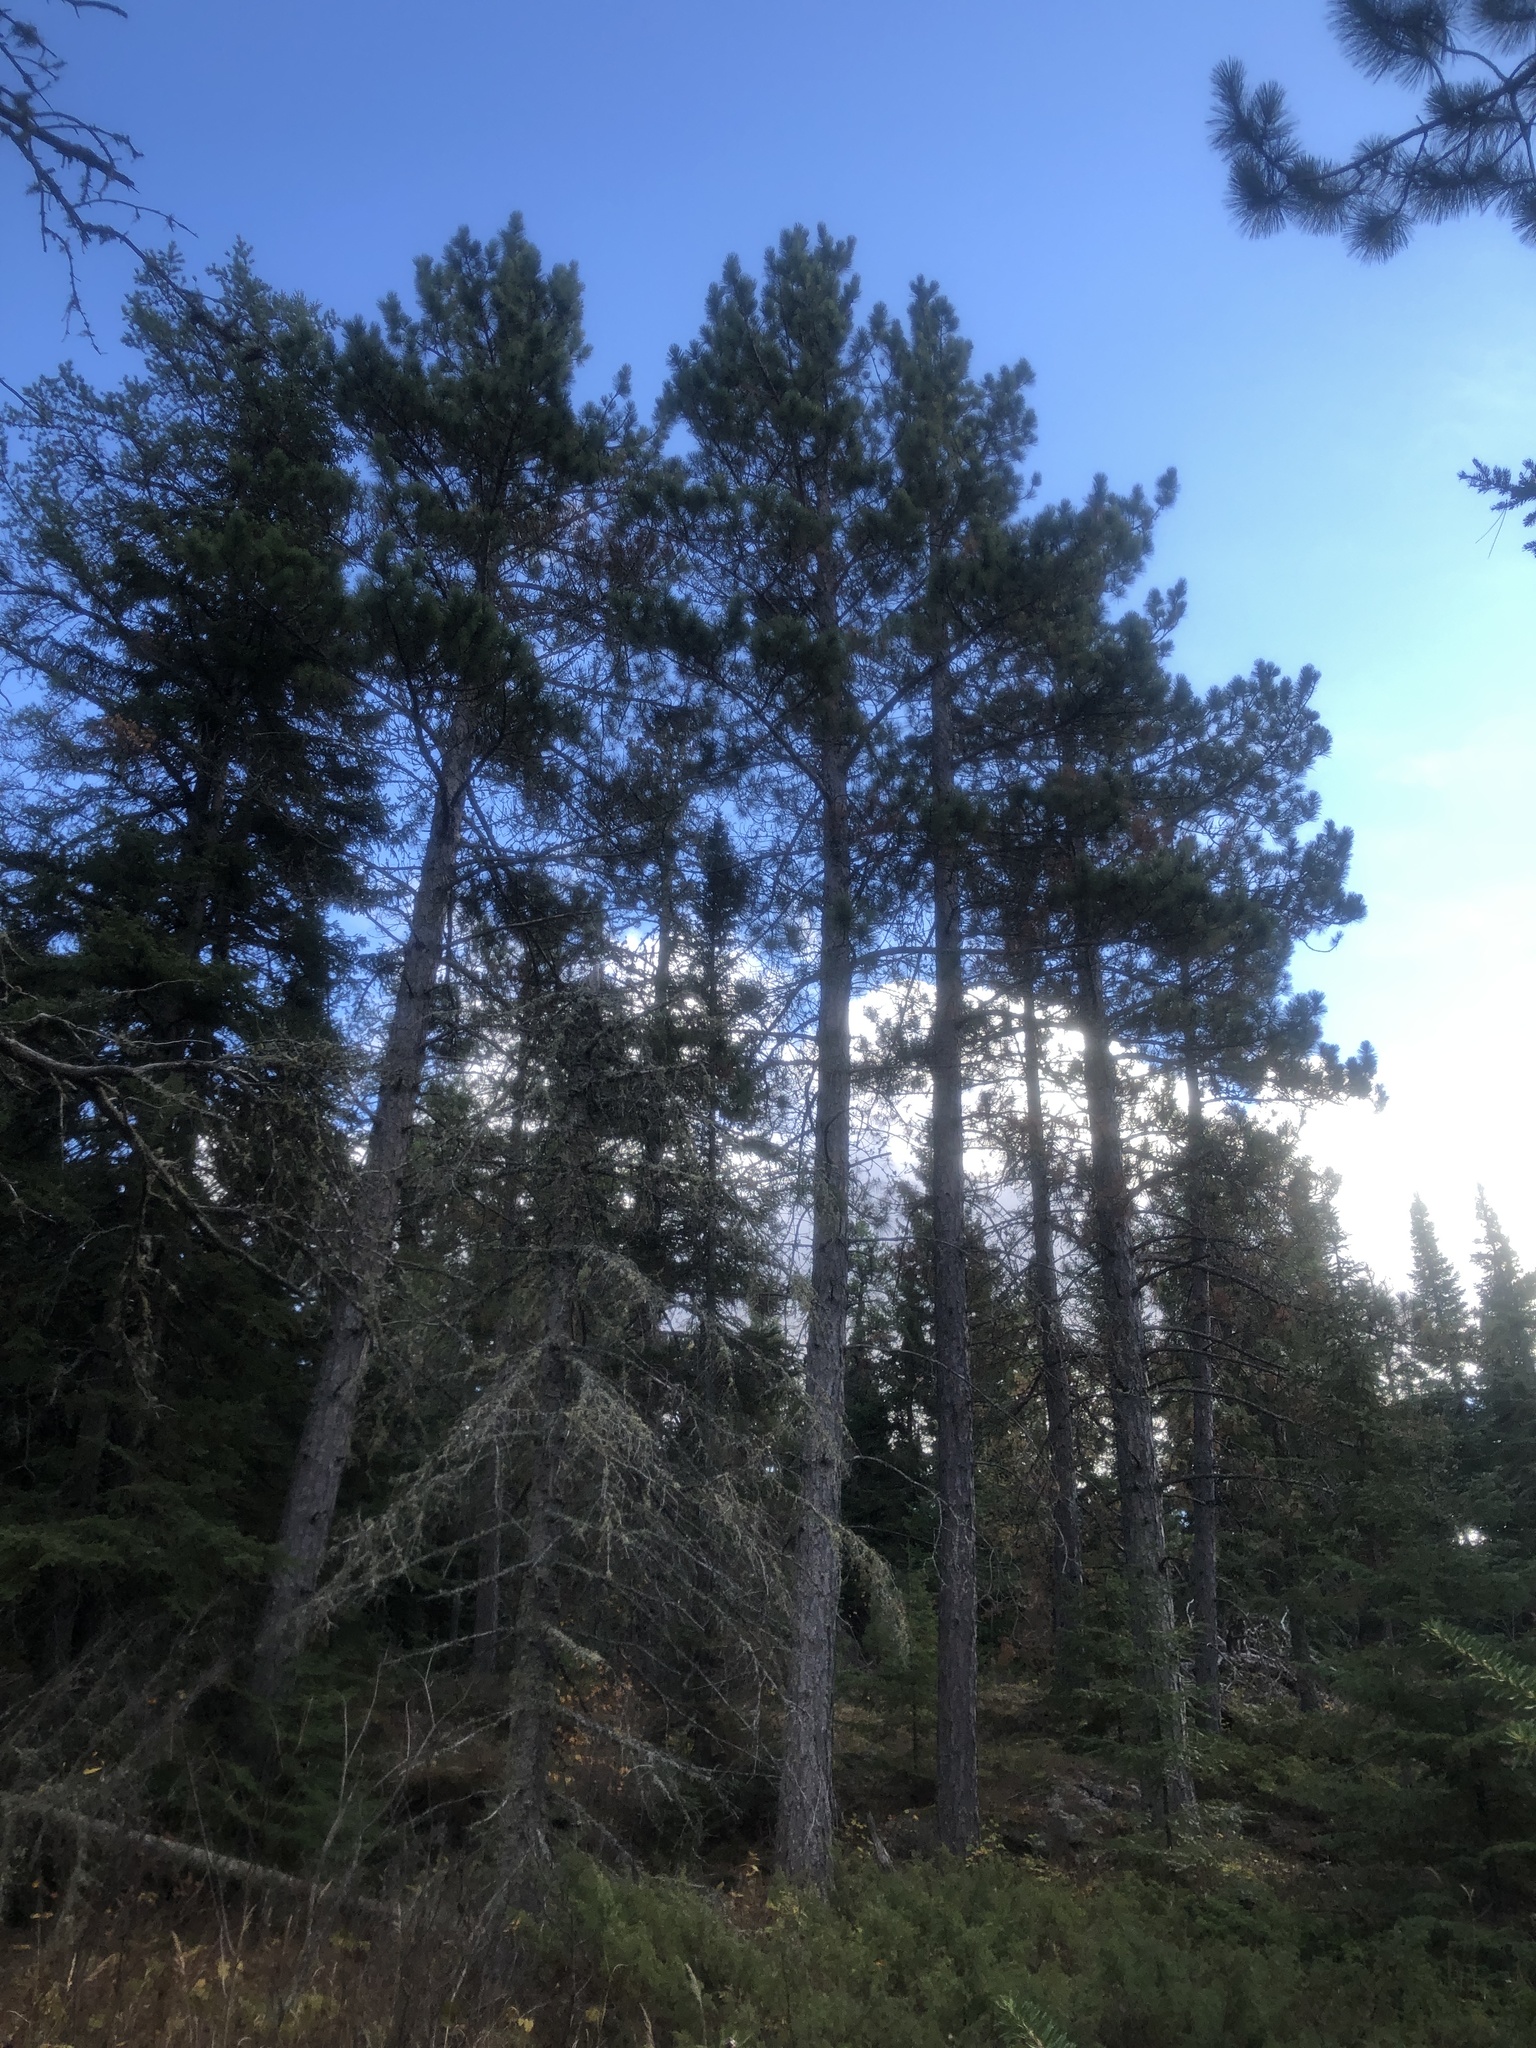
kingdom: Plantae
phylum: Tracheophyta
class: Pinopsida
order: Pinales
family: Pinaceae
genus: Pinus
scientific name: Pinus resinosa
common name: Norway pine
